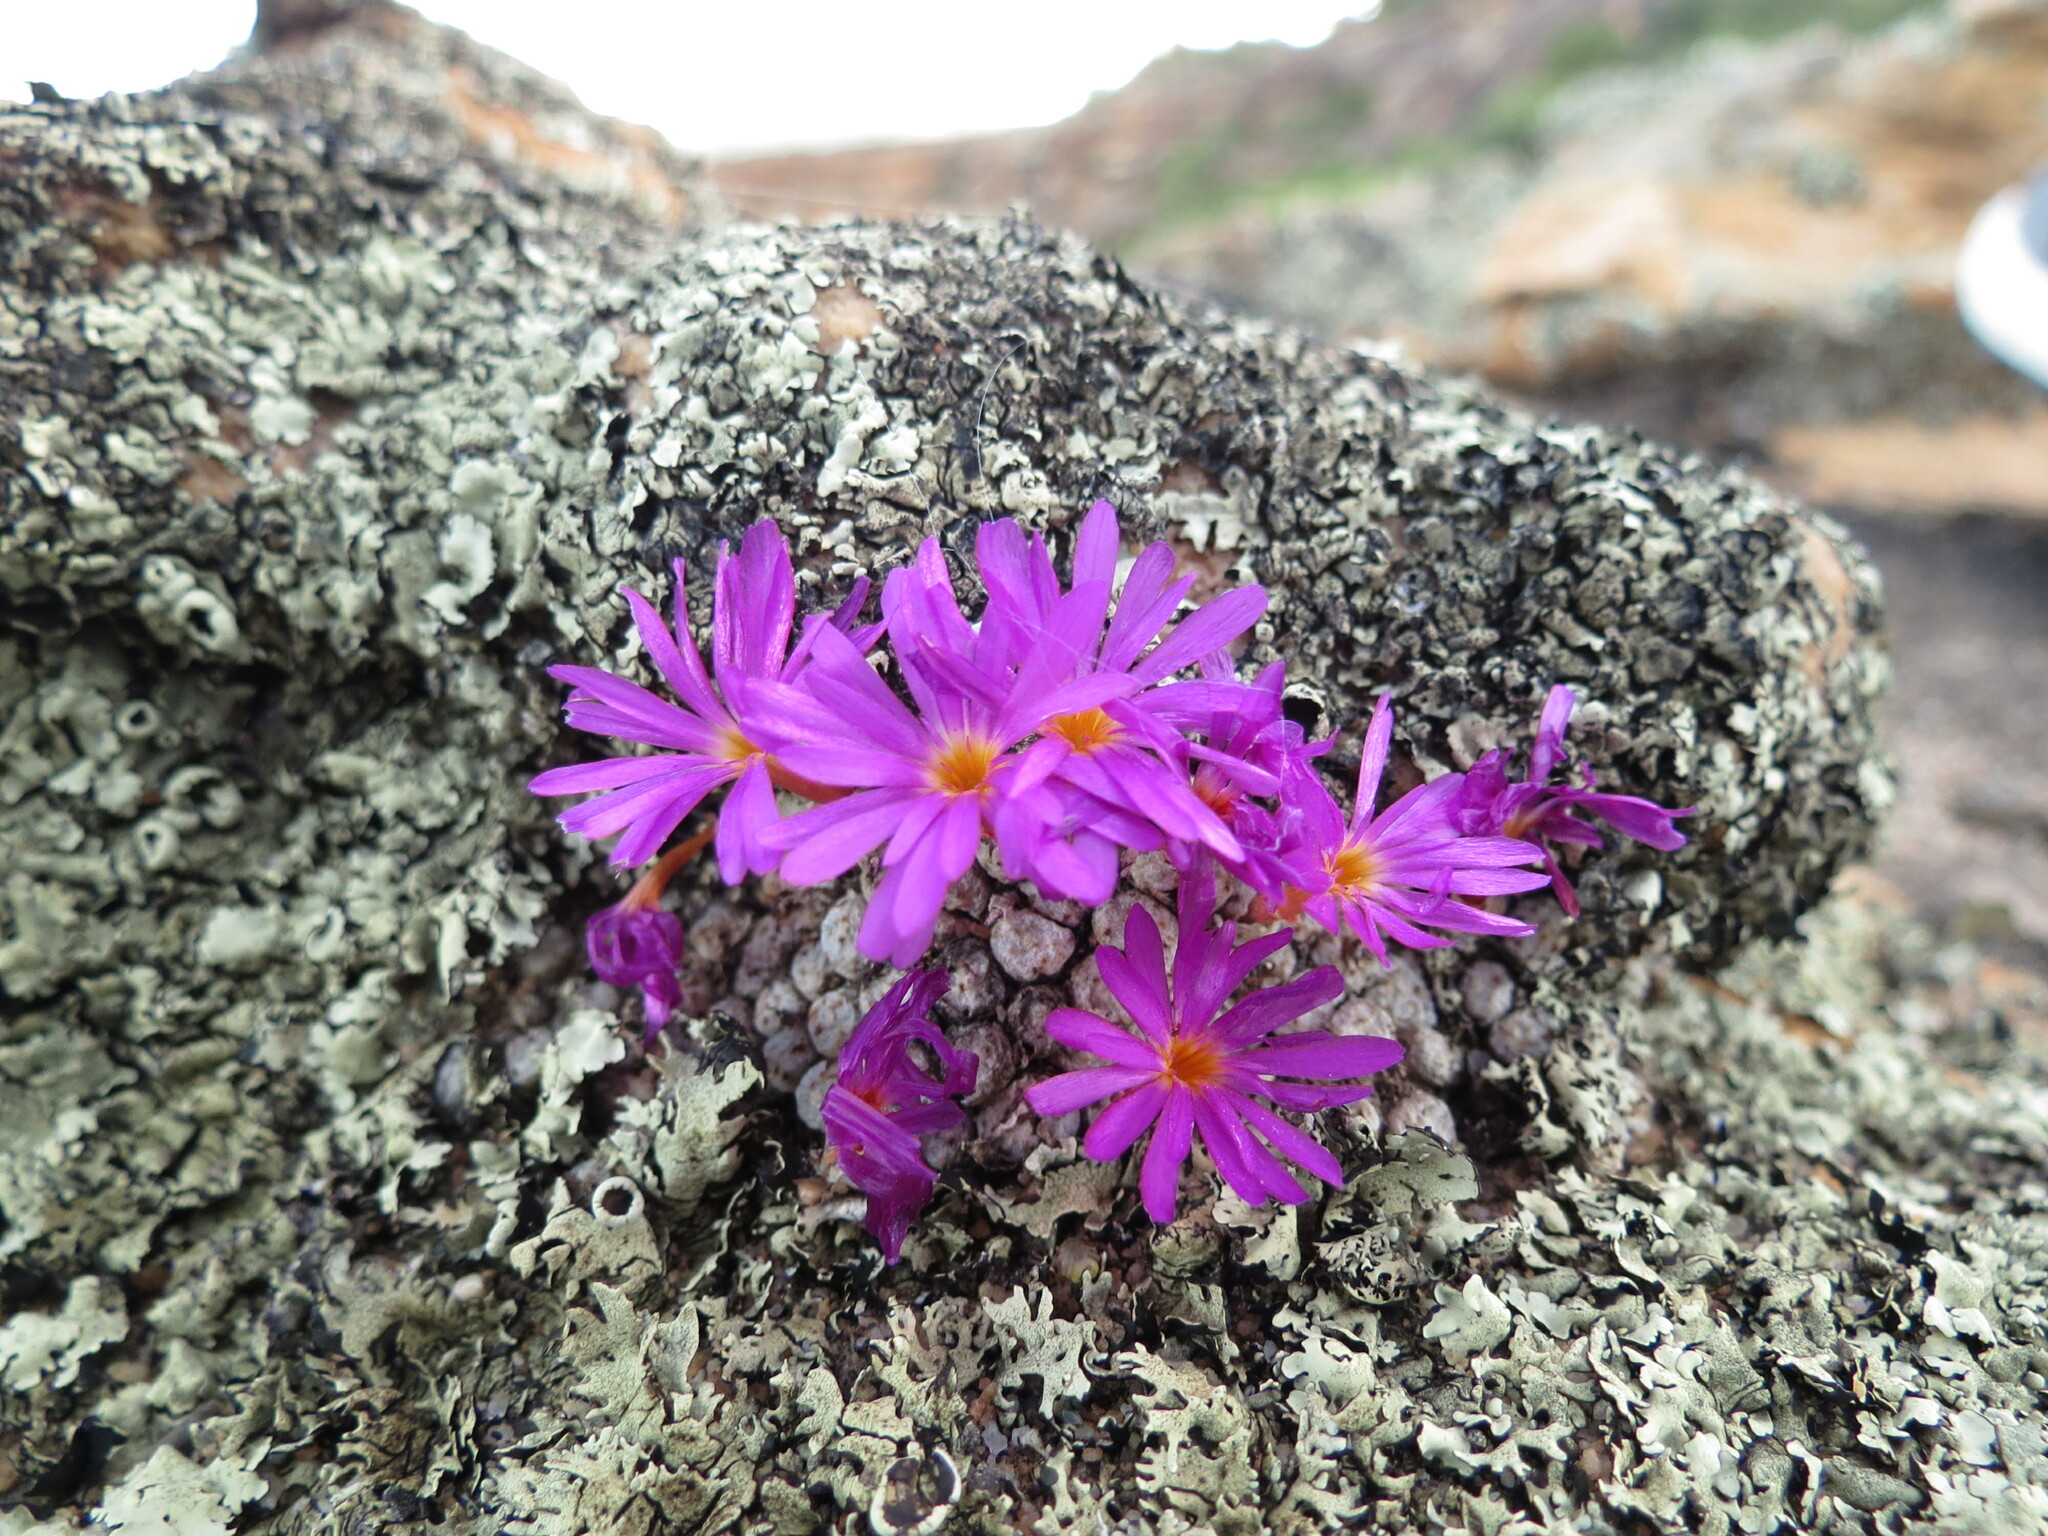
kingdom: Plantae
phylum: Tracheophyta
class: Magnoliopsida
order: Caryophyllales
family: Aizoaceae
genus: Conophytum
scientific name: Conophytum minusculum
